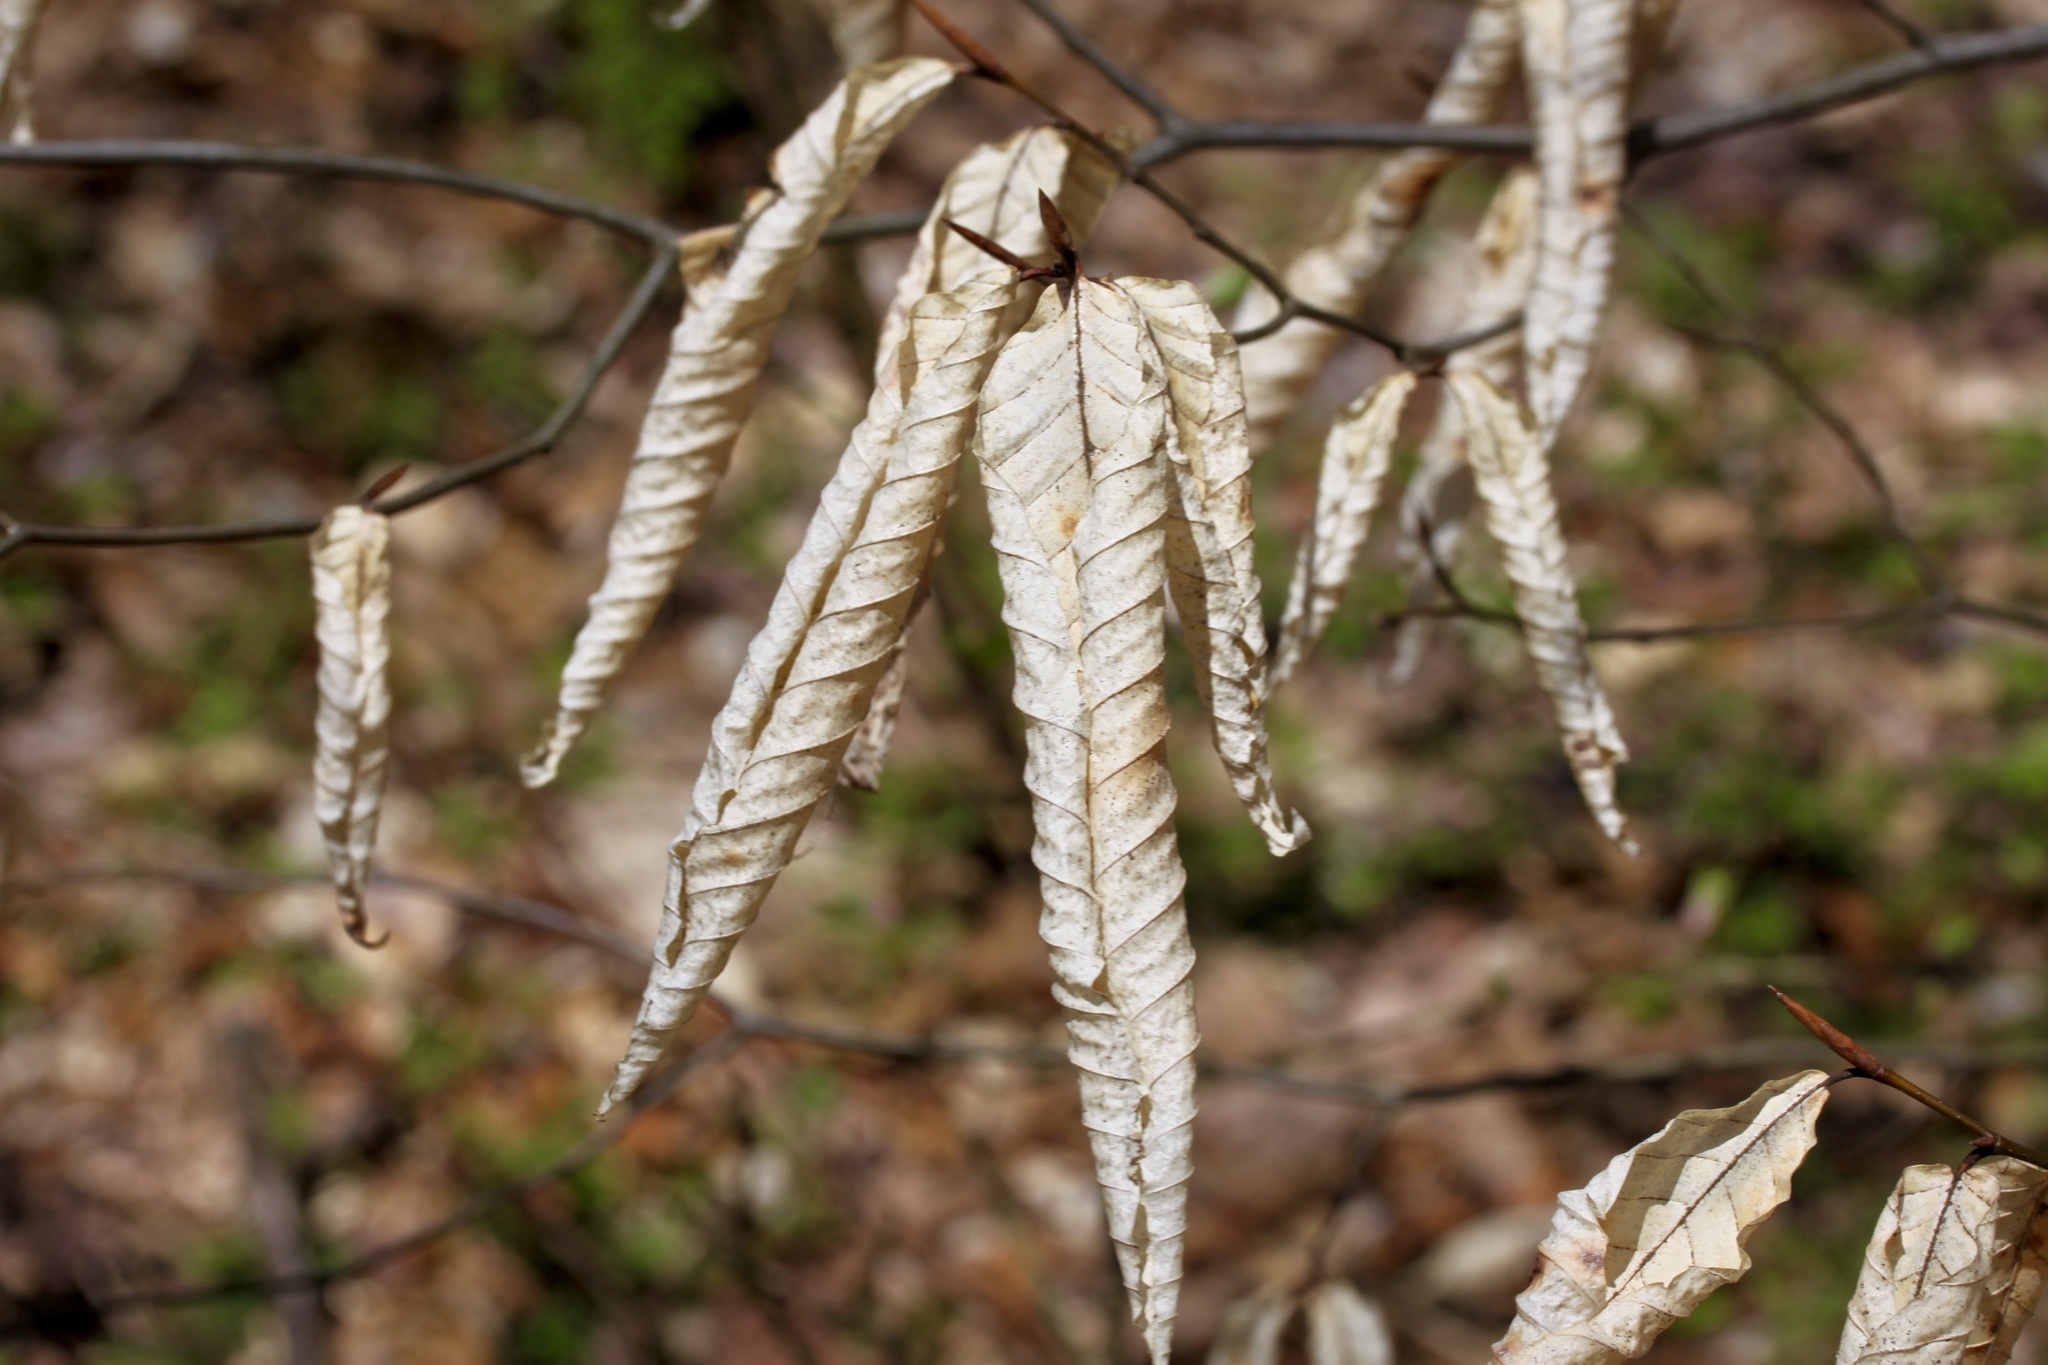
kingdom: Plantae
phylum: Tracheophyta
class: Magnoliopsida
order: Fagales
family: Fagaceae
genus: Fagus
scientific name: Fagus grandifolia
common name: American beech
